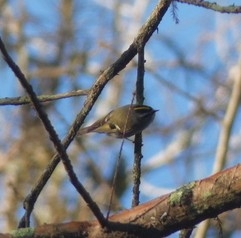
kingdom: Animalia
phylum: Chordata
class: Aves
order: Passeriformes
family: Regulidae
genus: Regulus
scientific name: Regulus satrapa
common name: Golden-crowned kinglet
